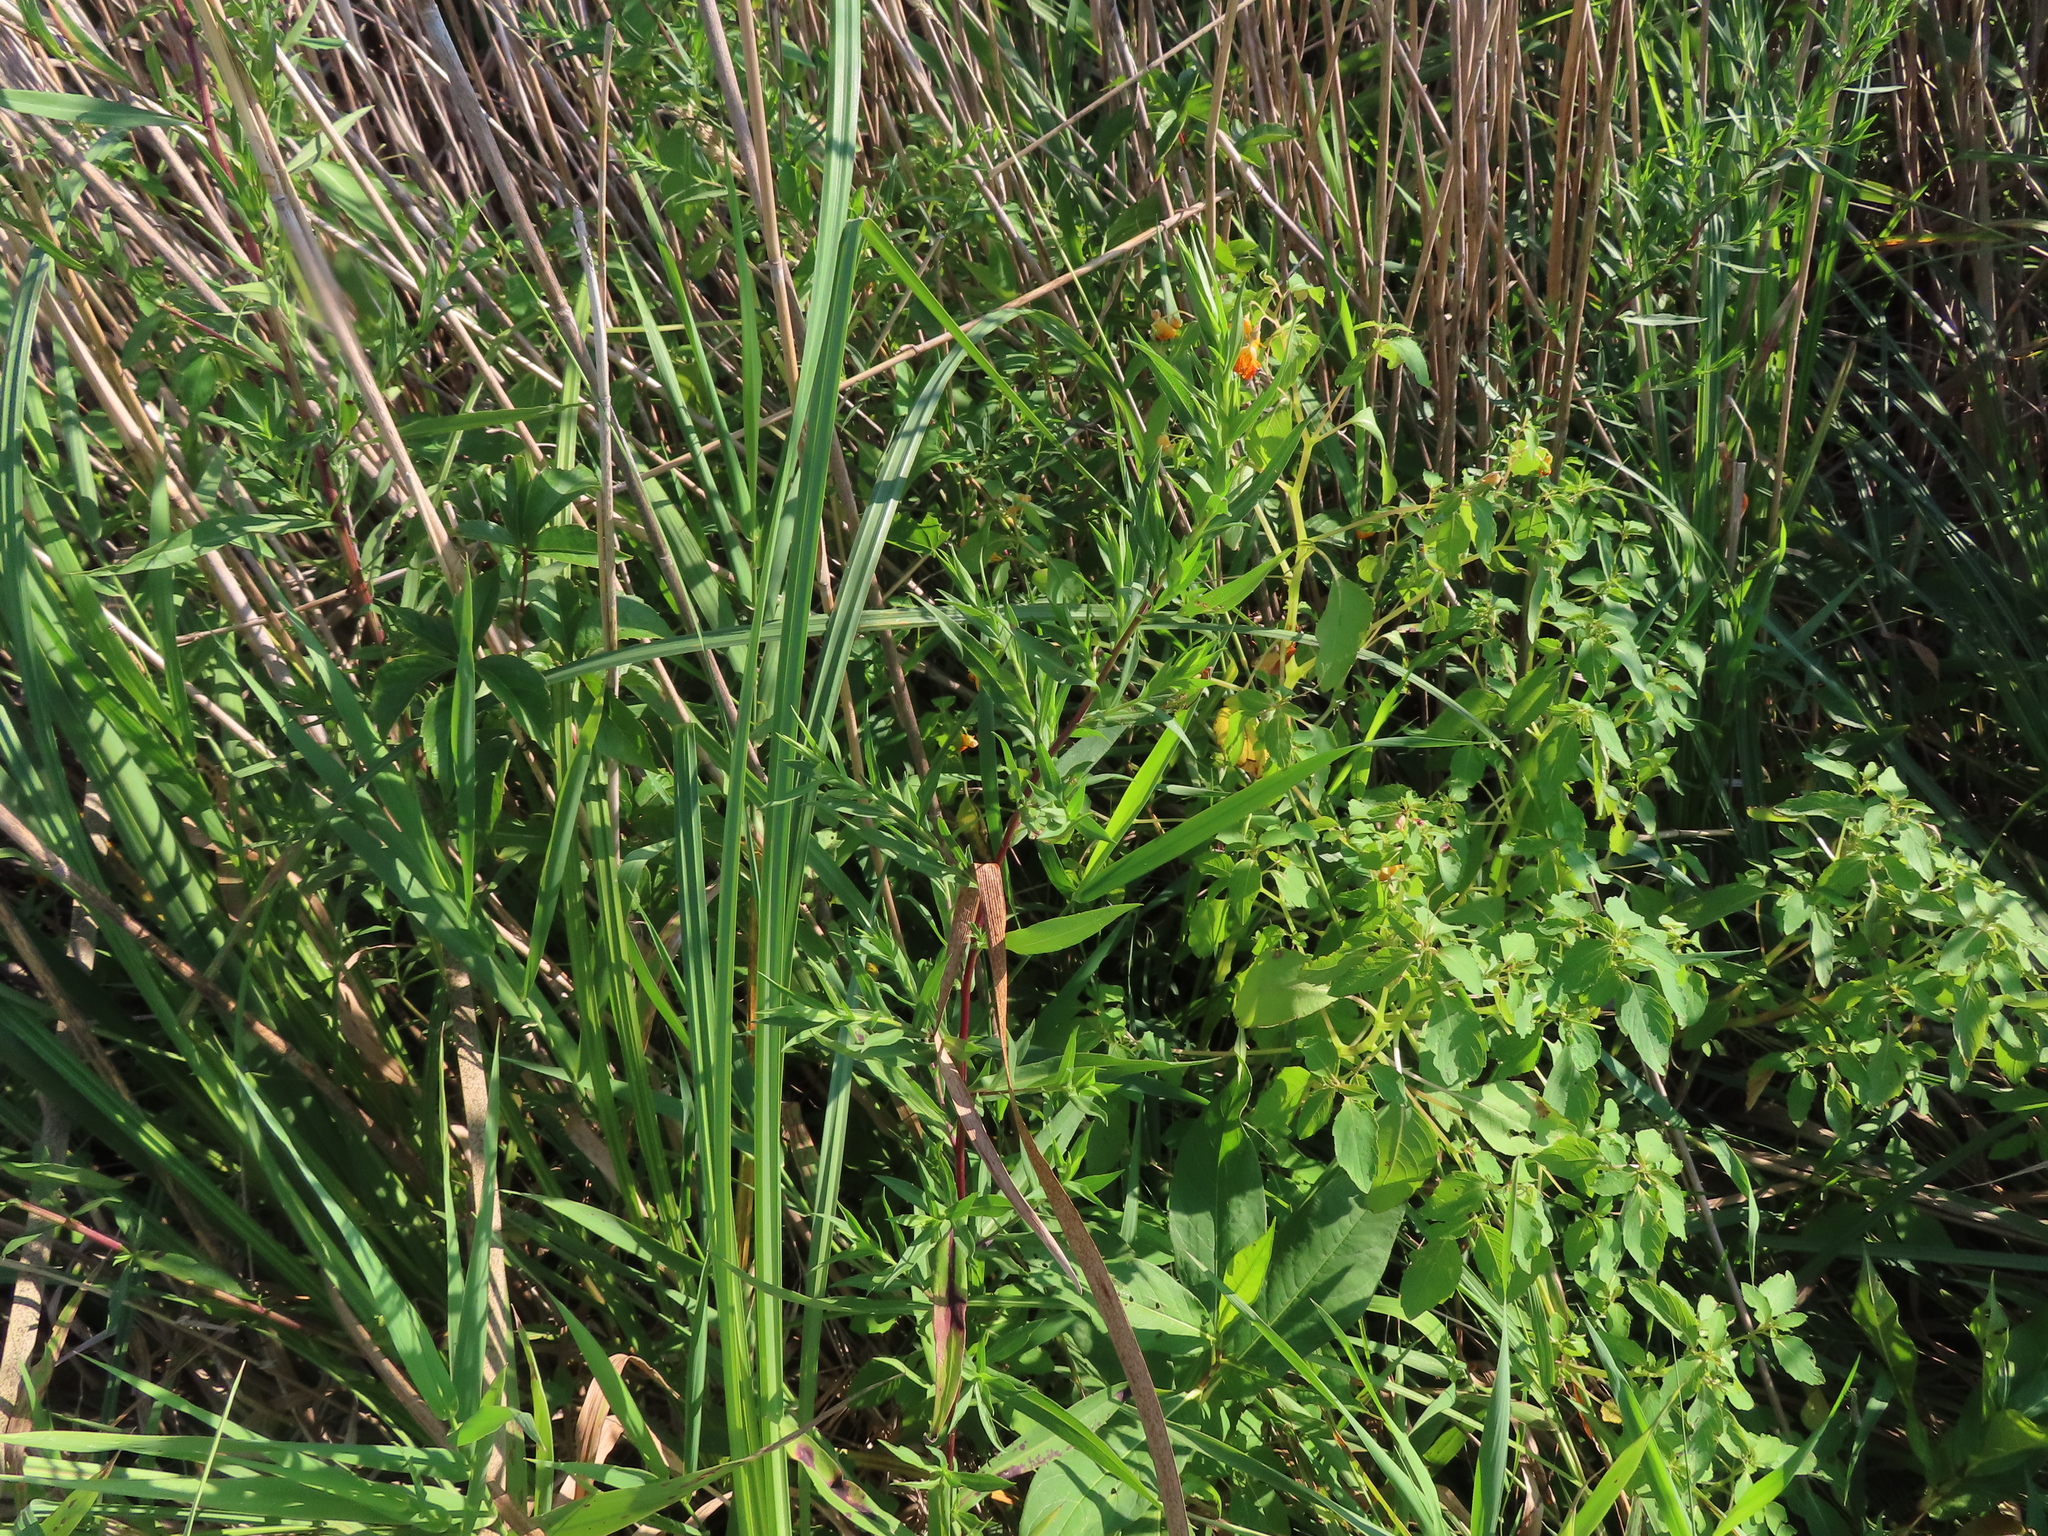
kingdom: Plantae
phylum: Tracheophyta
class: Magnoliopsida
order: Ericales
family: Balsaminaceae
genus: Impatiens
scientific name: Impatiens capensis
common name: Orange balsam
